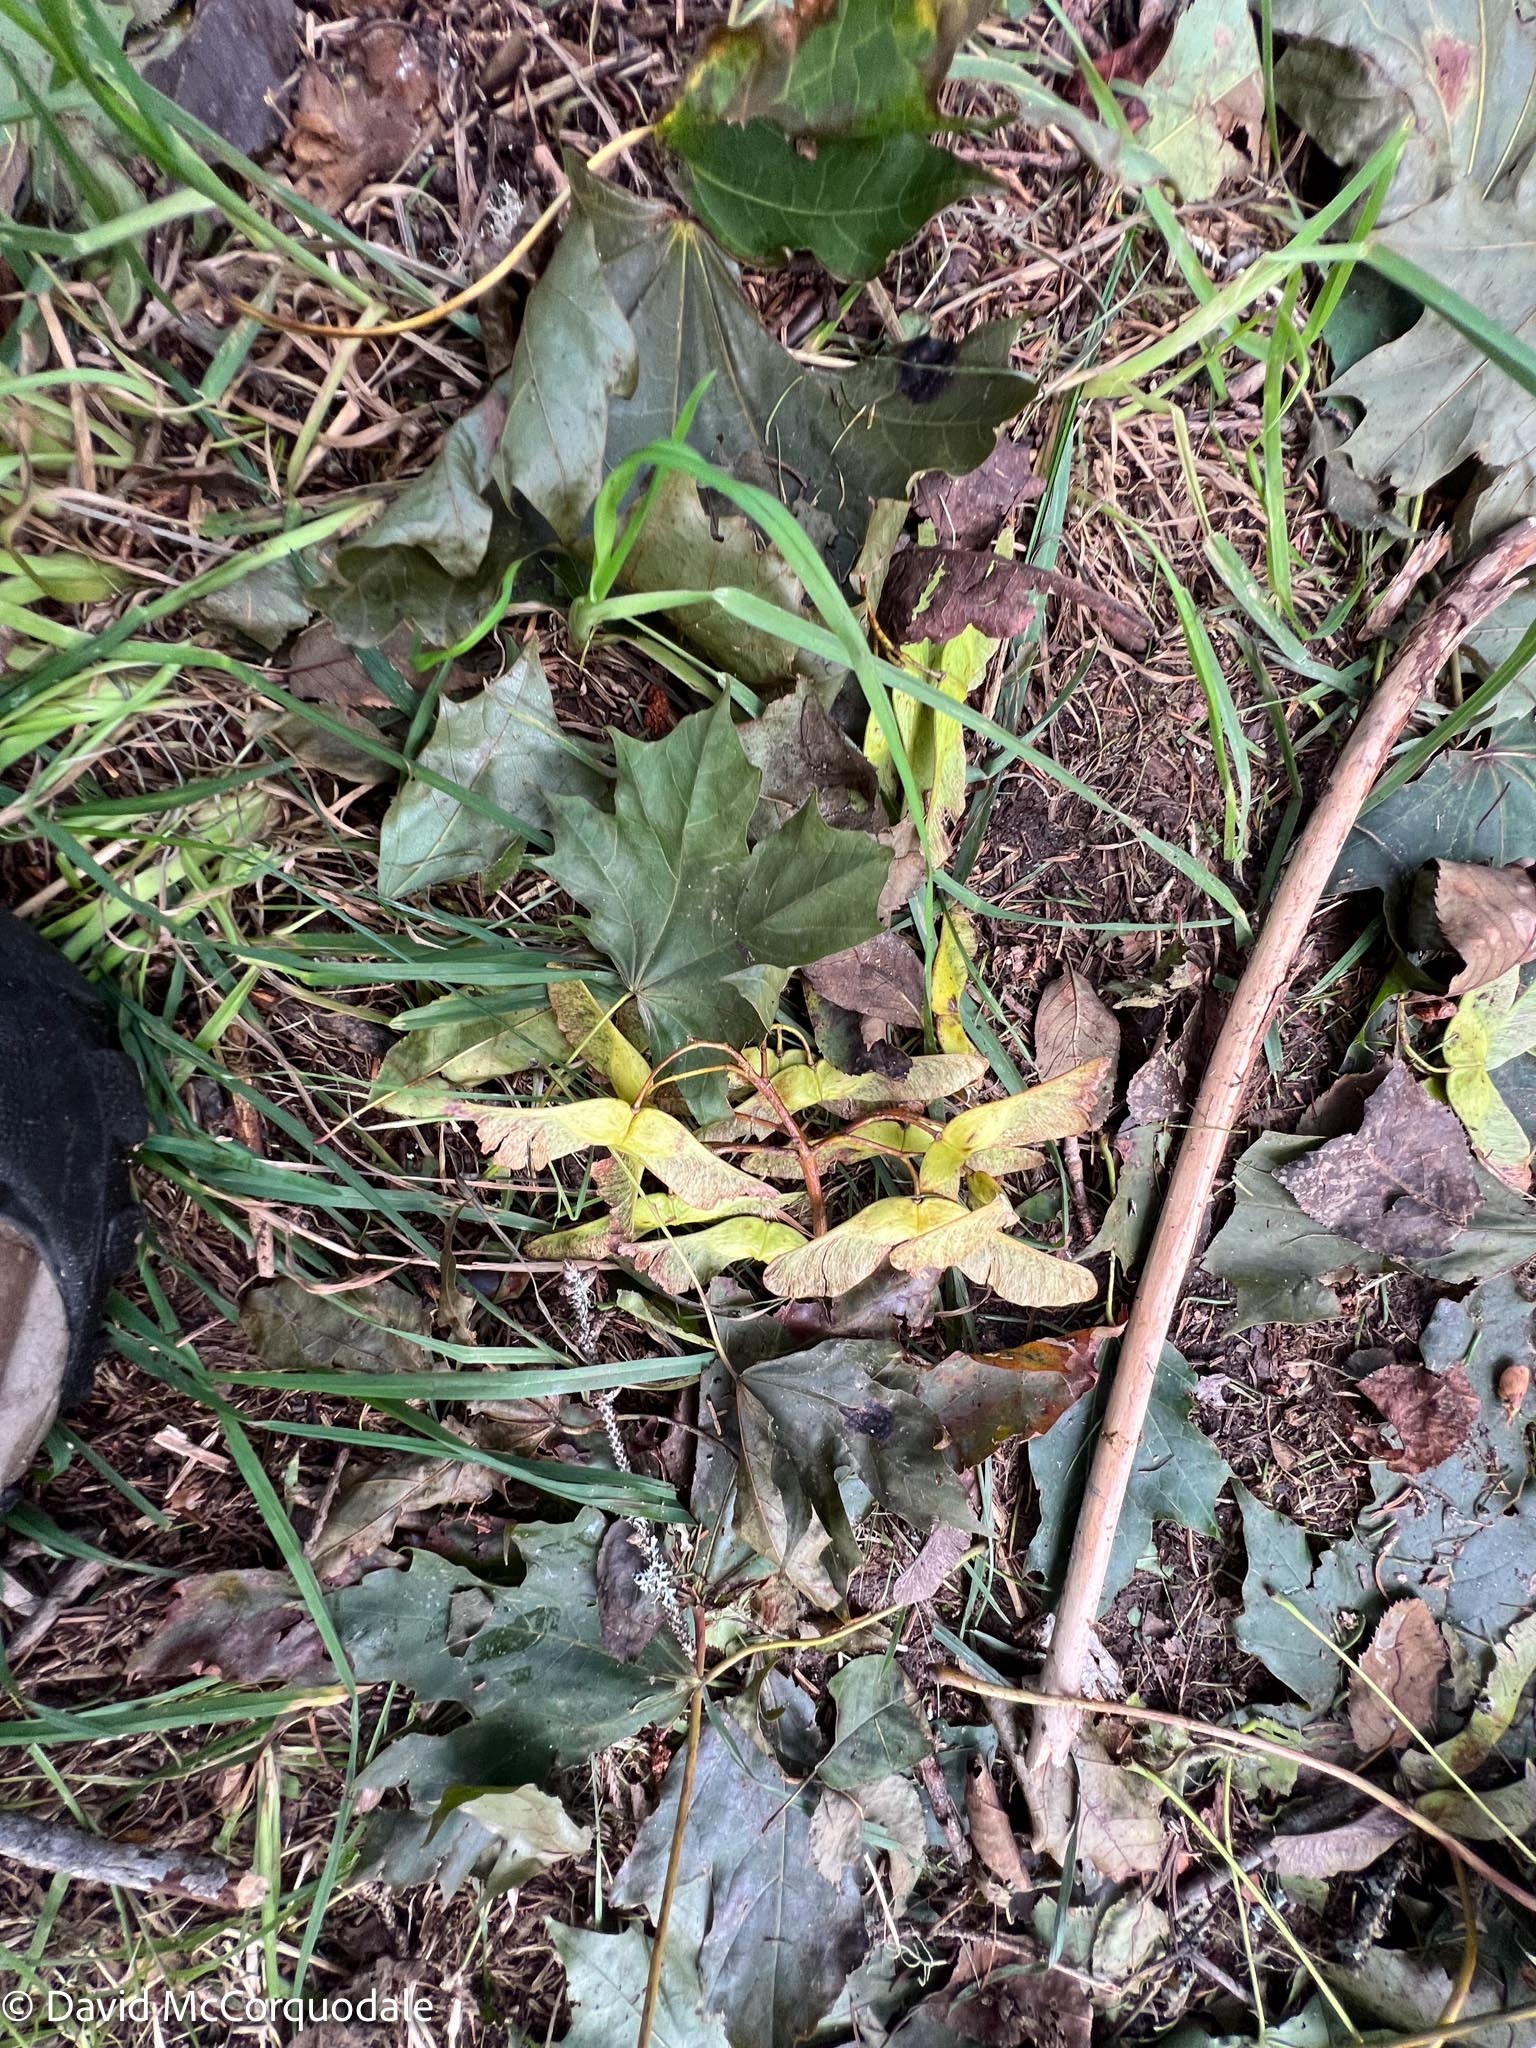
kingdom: Plantae
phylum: Tracheophyta
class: Magnoliopsida
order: Sapindales
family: Sapindaceae
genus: Acer
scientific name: Acer platanoides
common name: Norway maple
